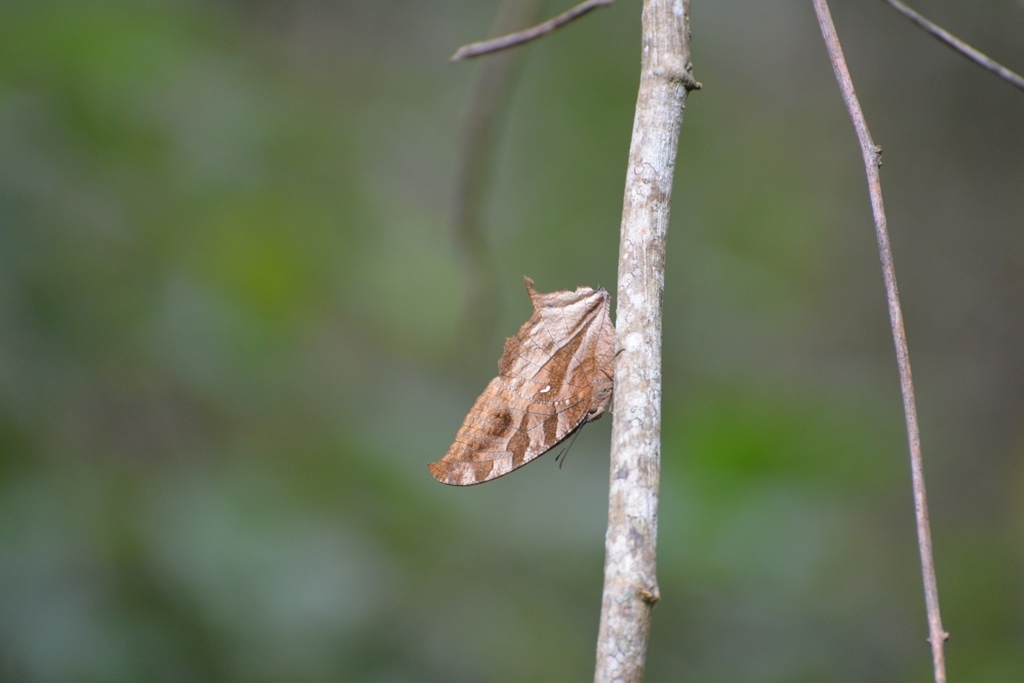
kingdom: Animalia
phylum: Arthropoda
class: Insecta
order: Lepidoptera
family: Nymphalidae
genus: Consul
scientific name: Consul excellens
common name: Black-veined leafwing
